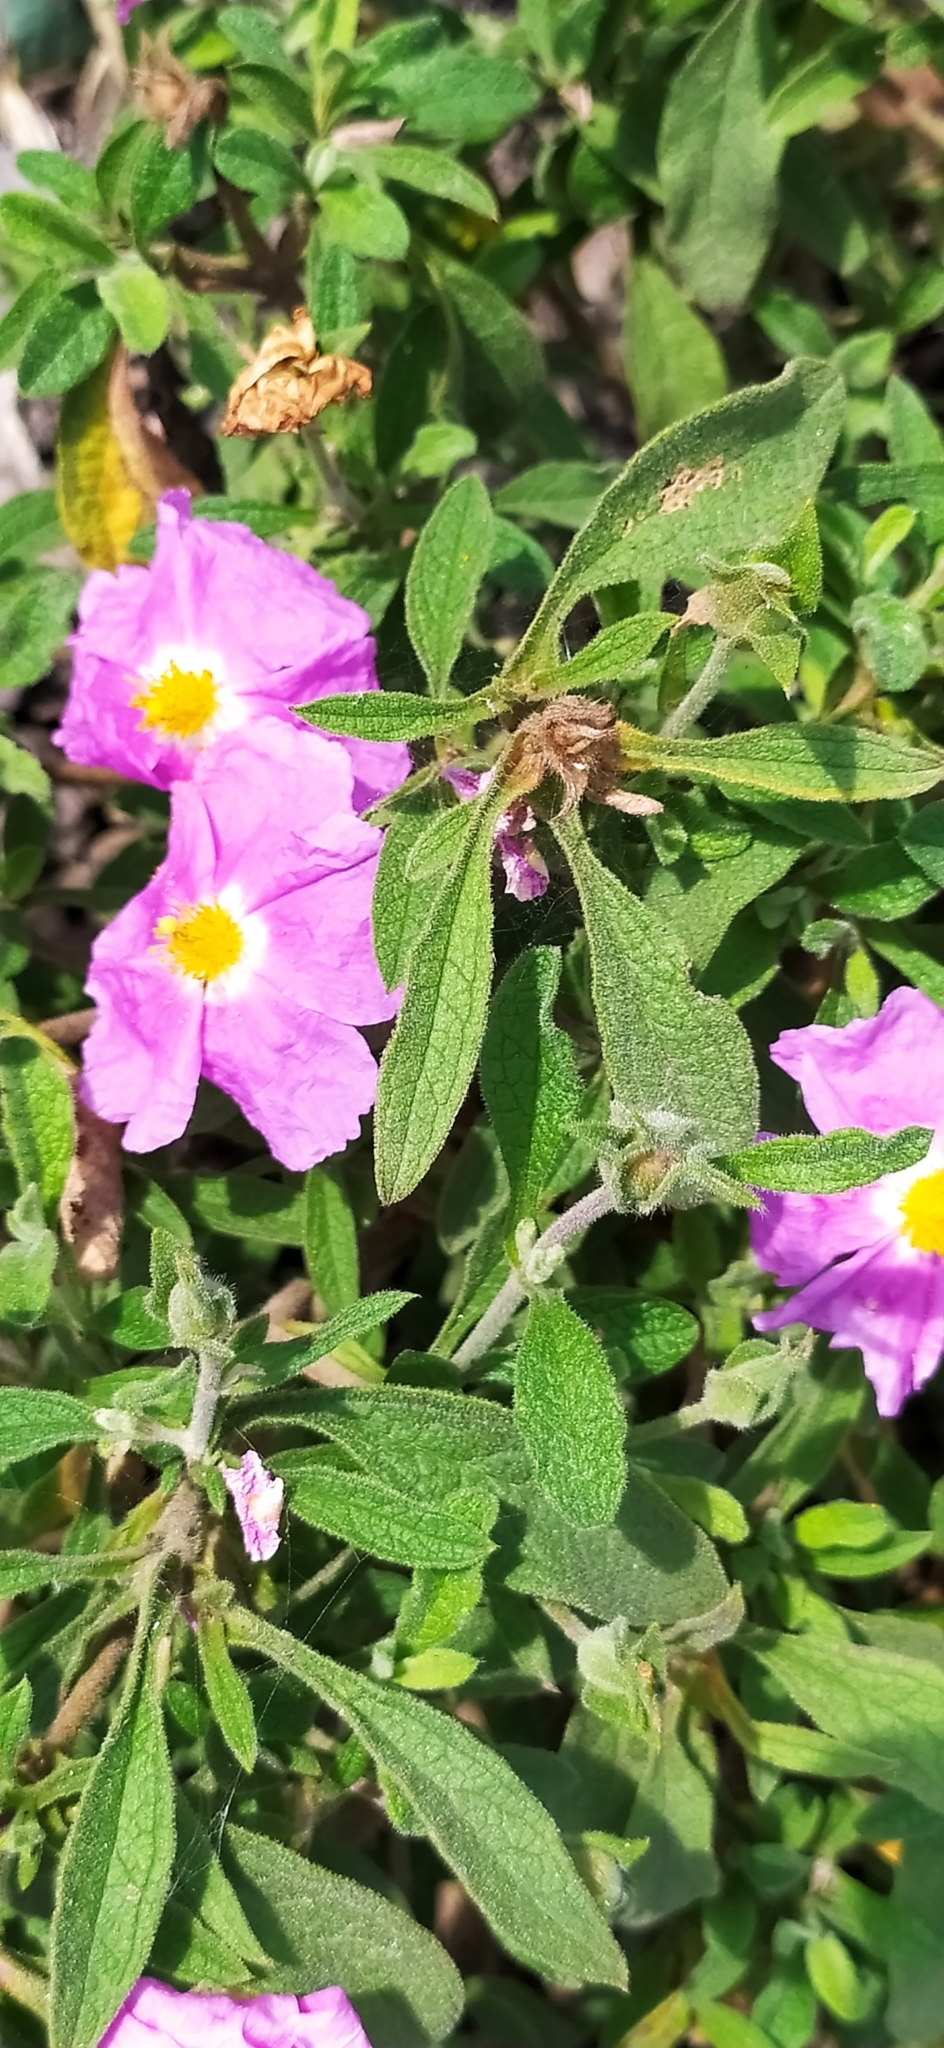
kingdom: Plantae
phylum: Tracheophyta
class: Magnoliopsida
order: Malvales
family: Cistaceae
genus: Cistus
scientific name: Cistus tauricus
